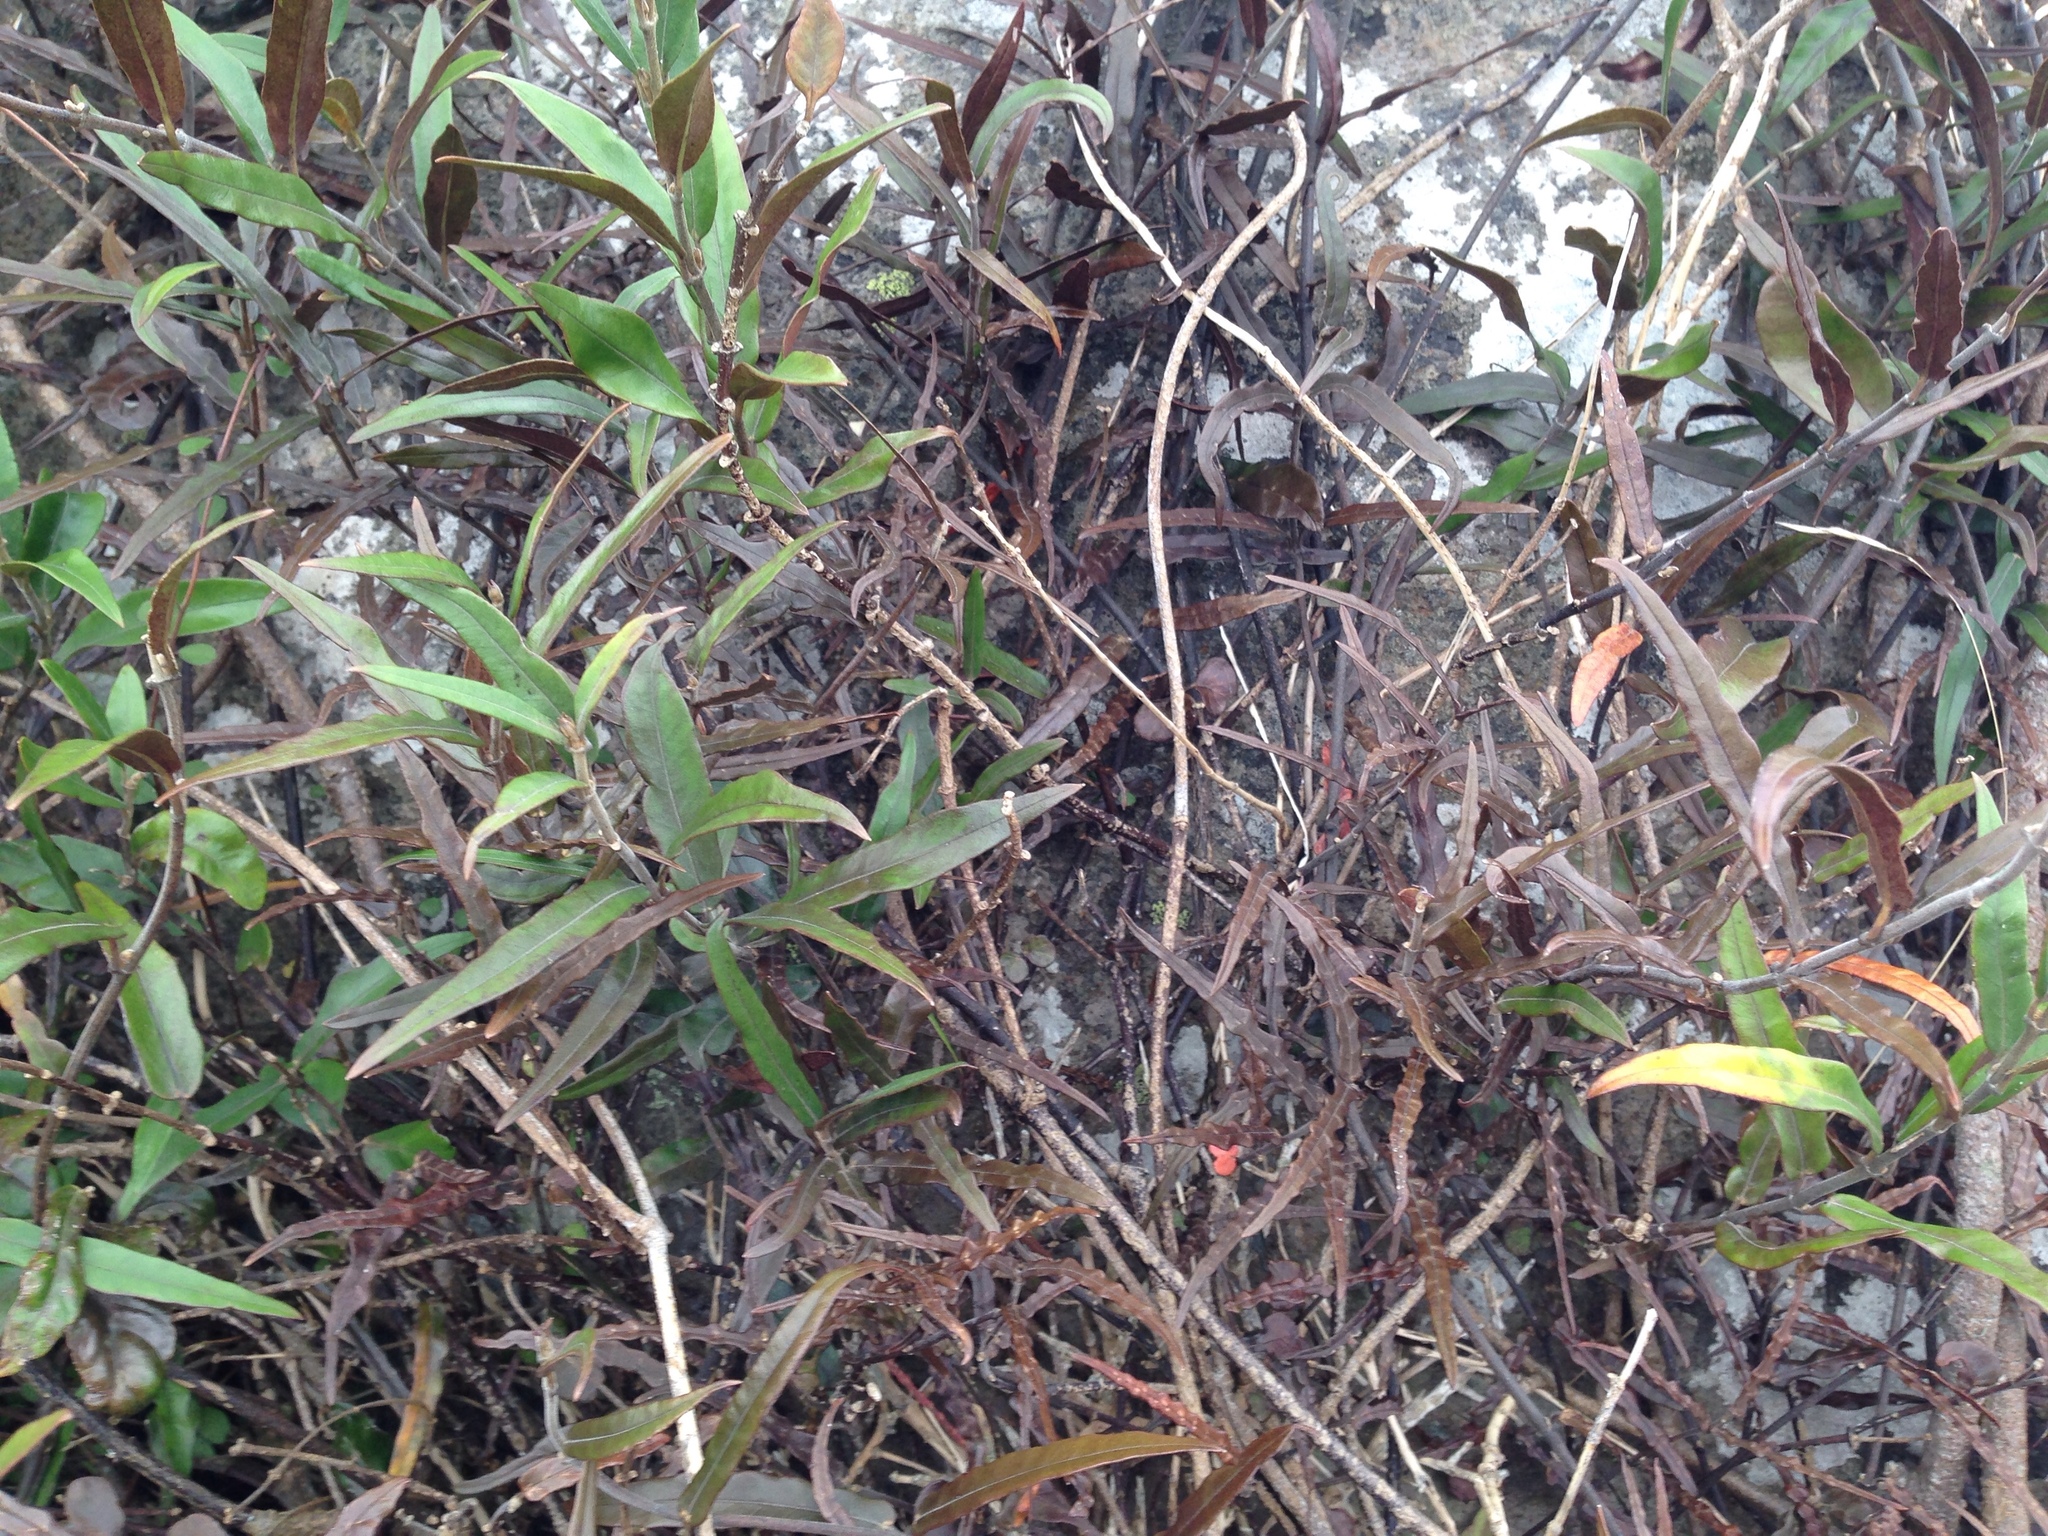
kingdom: Plantae
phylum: Tracheophyta
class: Magnoliopsida
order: Gentianales
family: Apocynaceae
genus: Parsonsia
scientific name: Parsonsia capsularis
